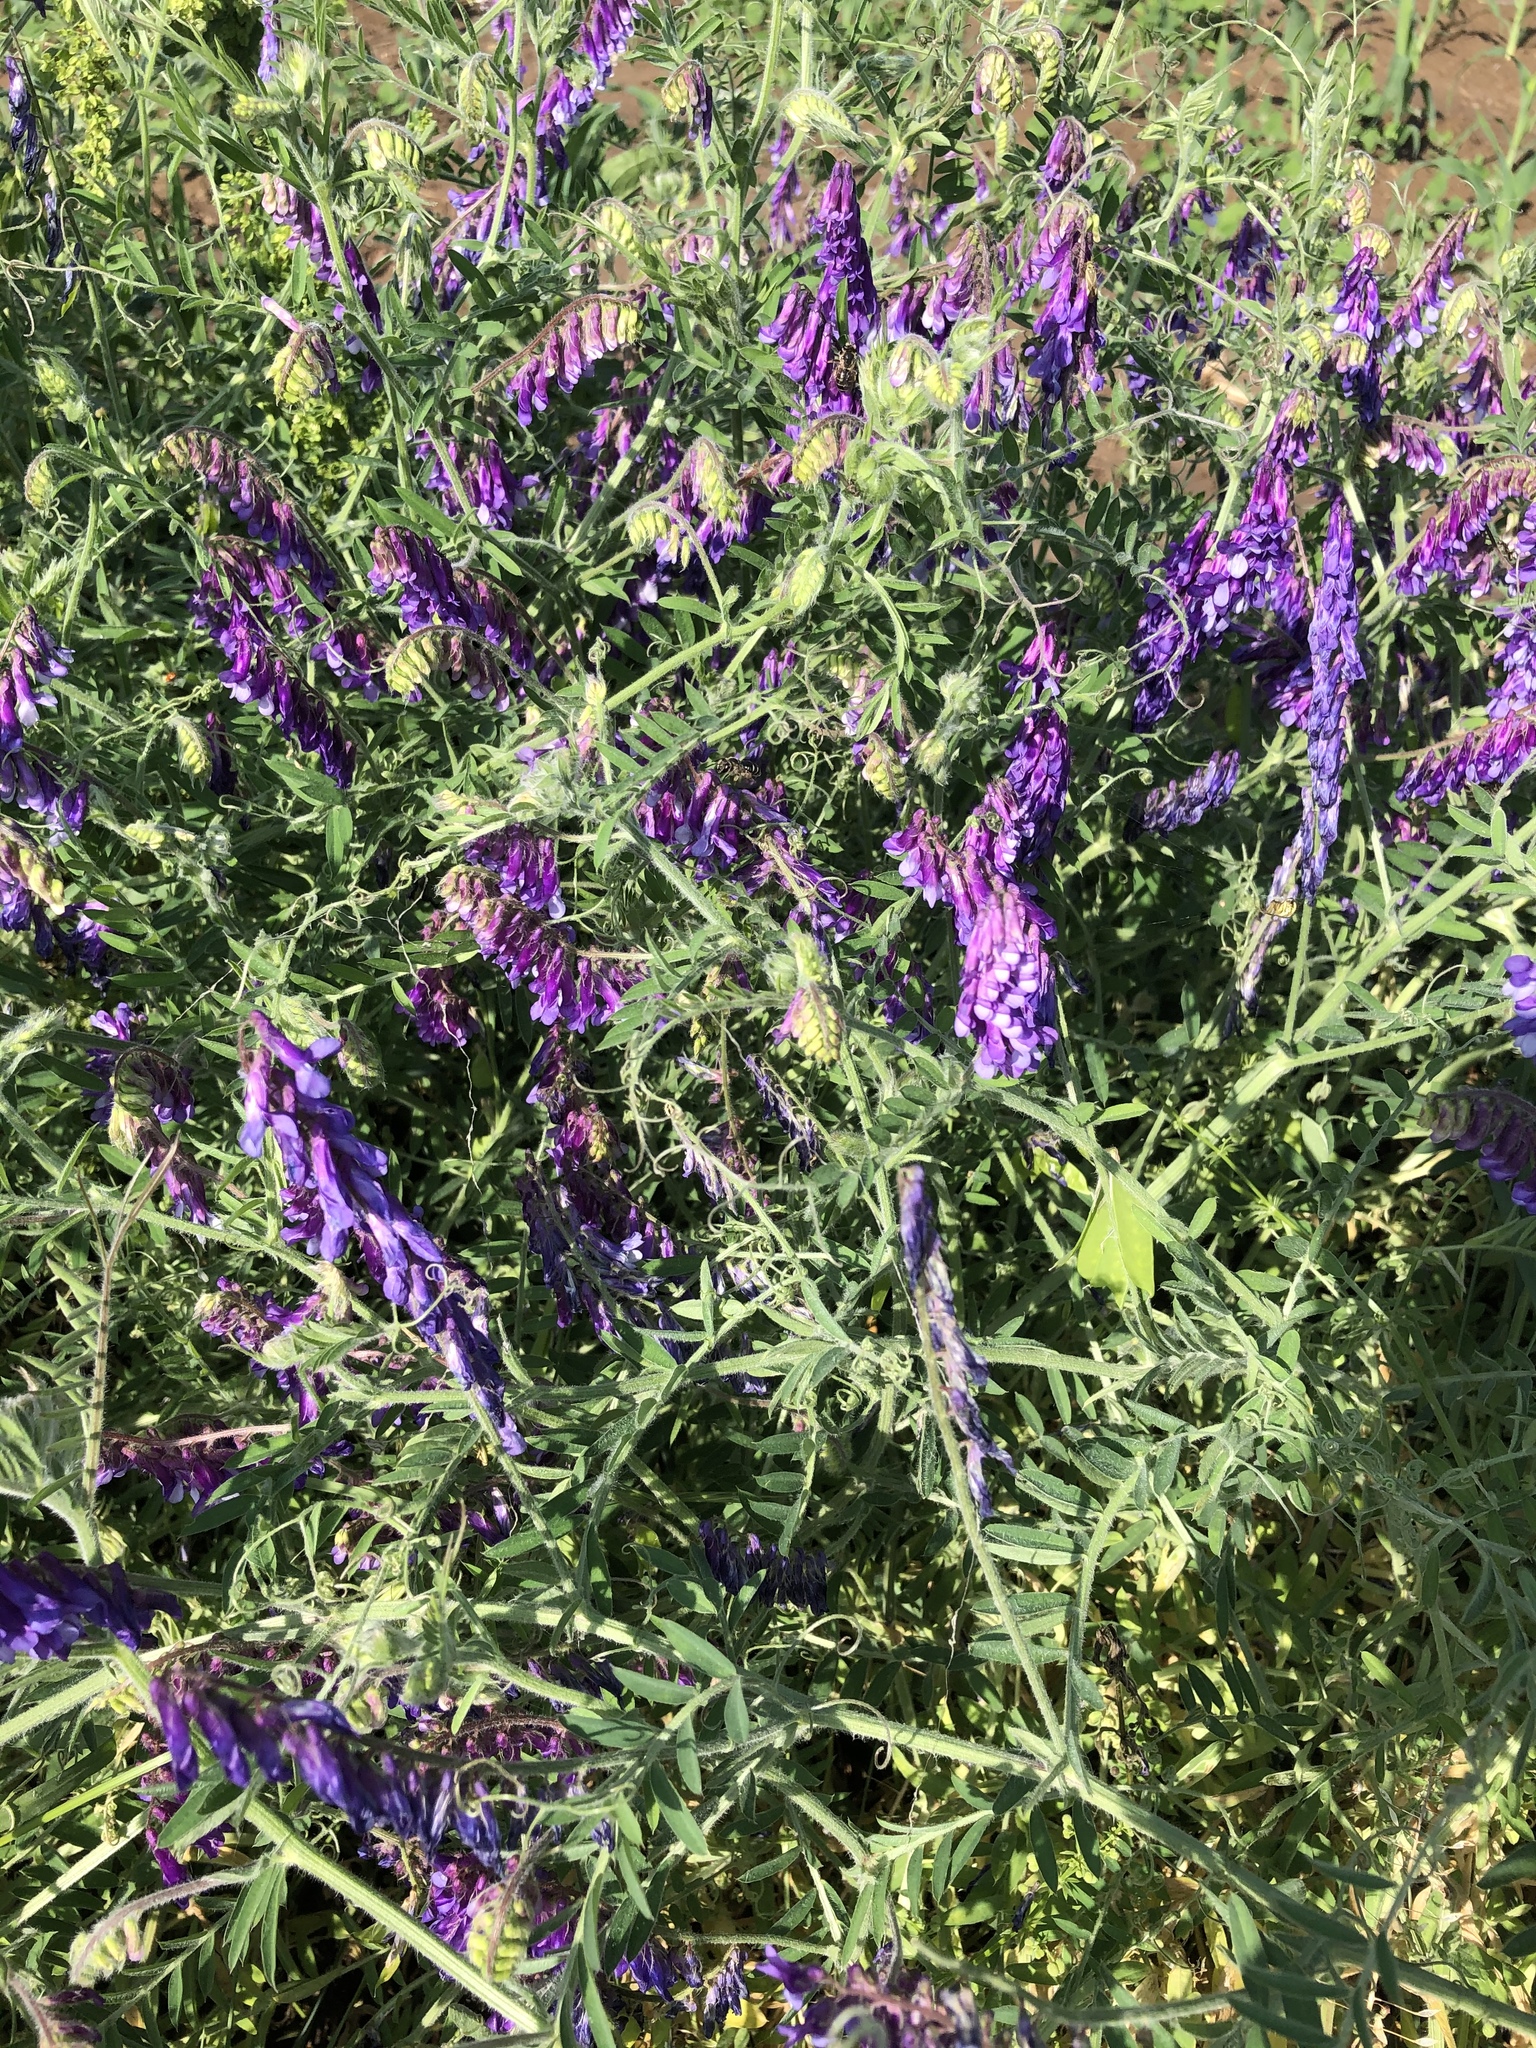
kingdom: Plantae
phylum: Tracheophyta
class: Magnoliopsida
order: Fabales
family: Fabaceae
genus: Vicia
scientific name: Vicia villosa
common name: Fodder vetch
